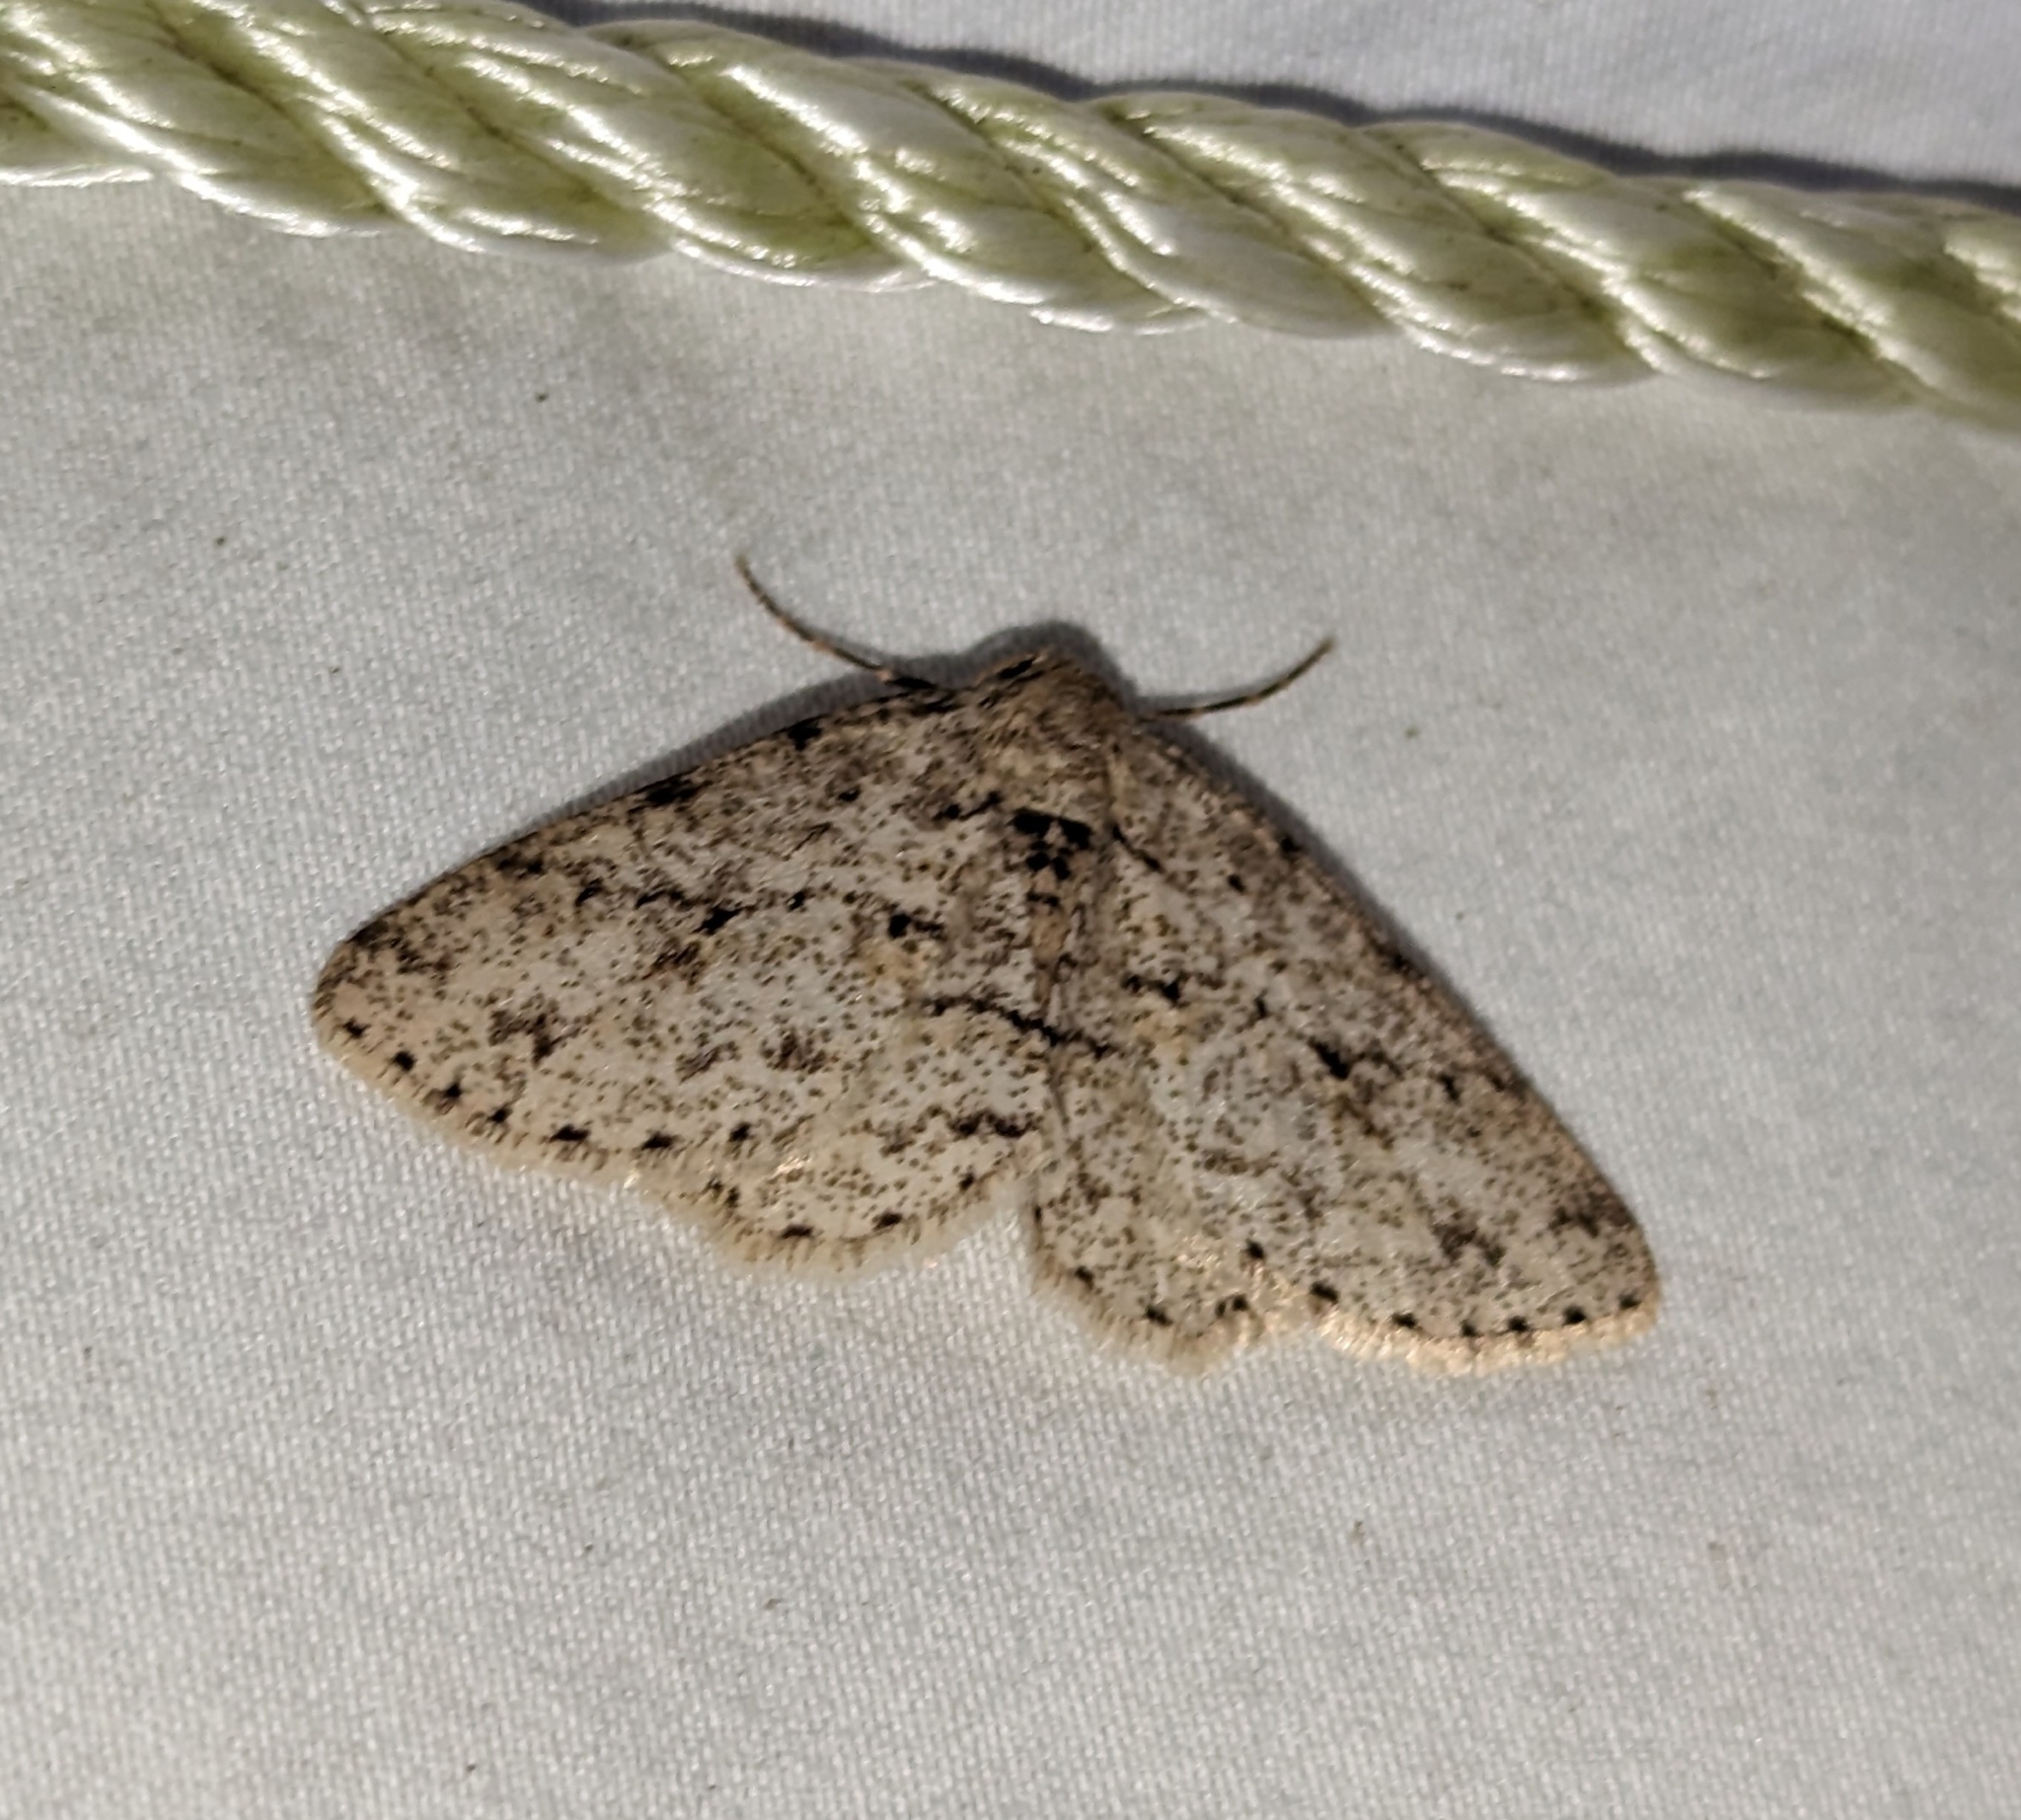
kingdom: Animalia
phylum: Arthropoda
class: Insecta
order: Lepidoptera
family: Geometridae
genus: Ectropis
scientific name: Ectropis crepuscularia
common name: Engrailed
